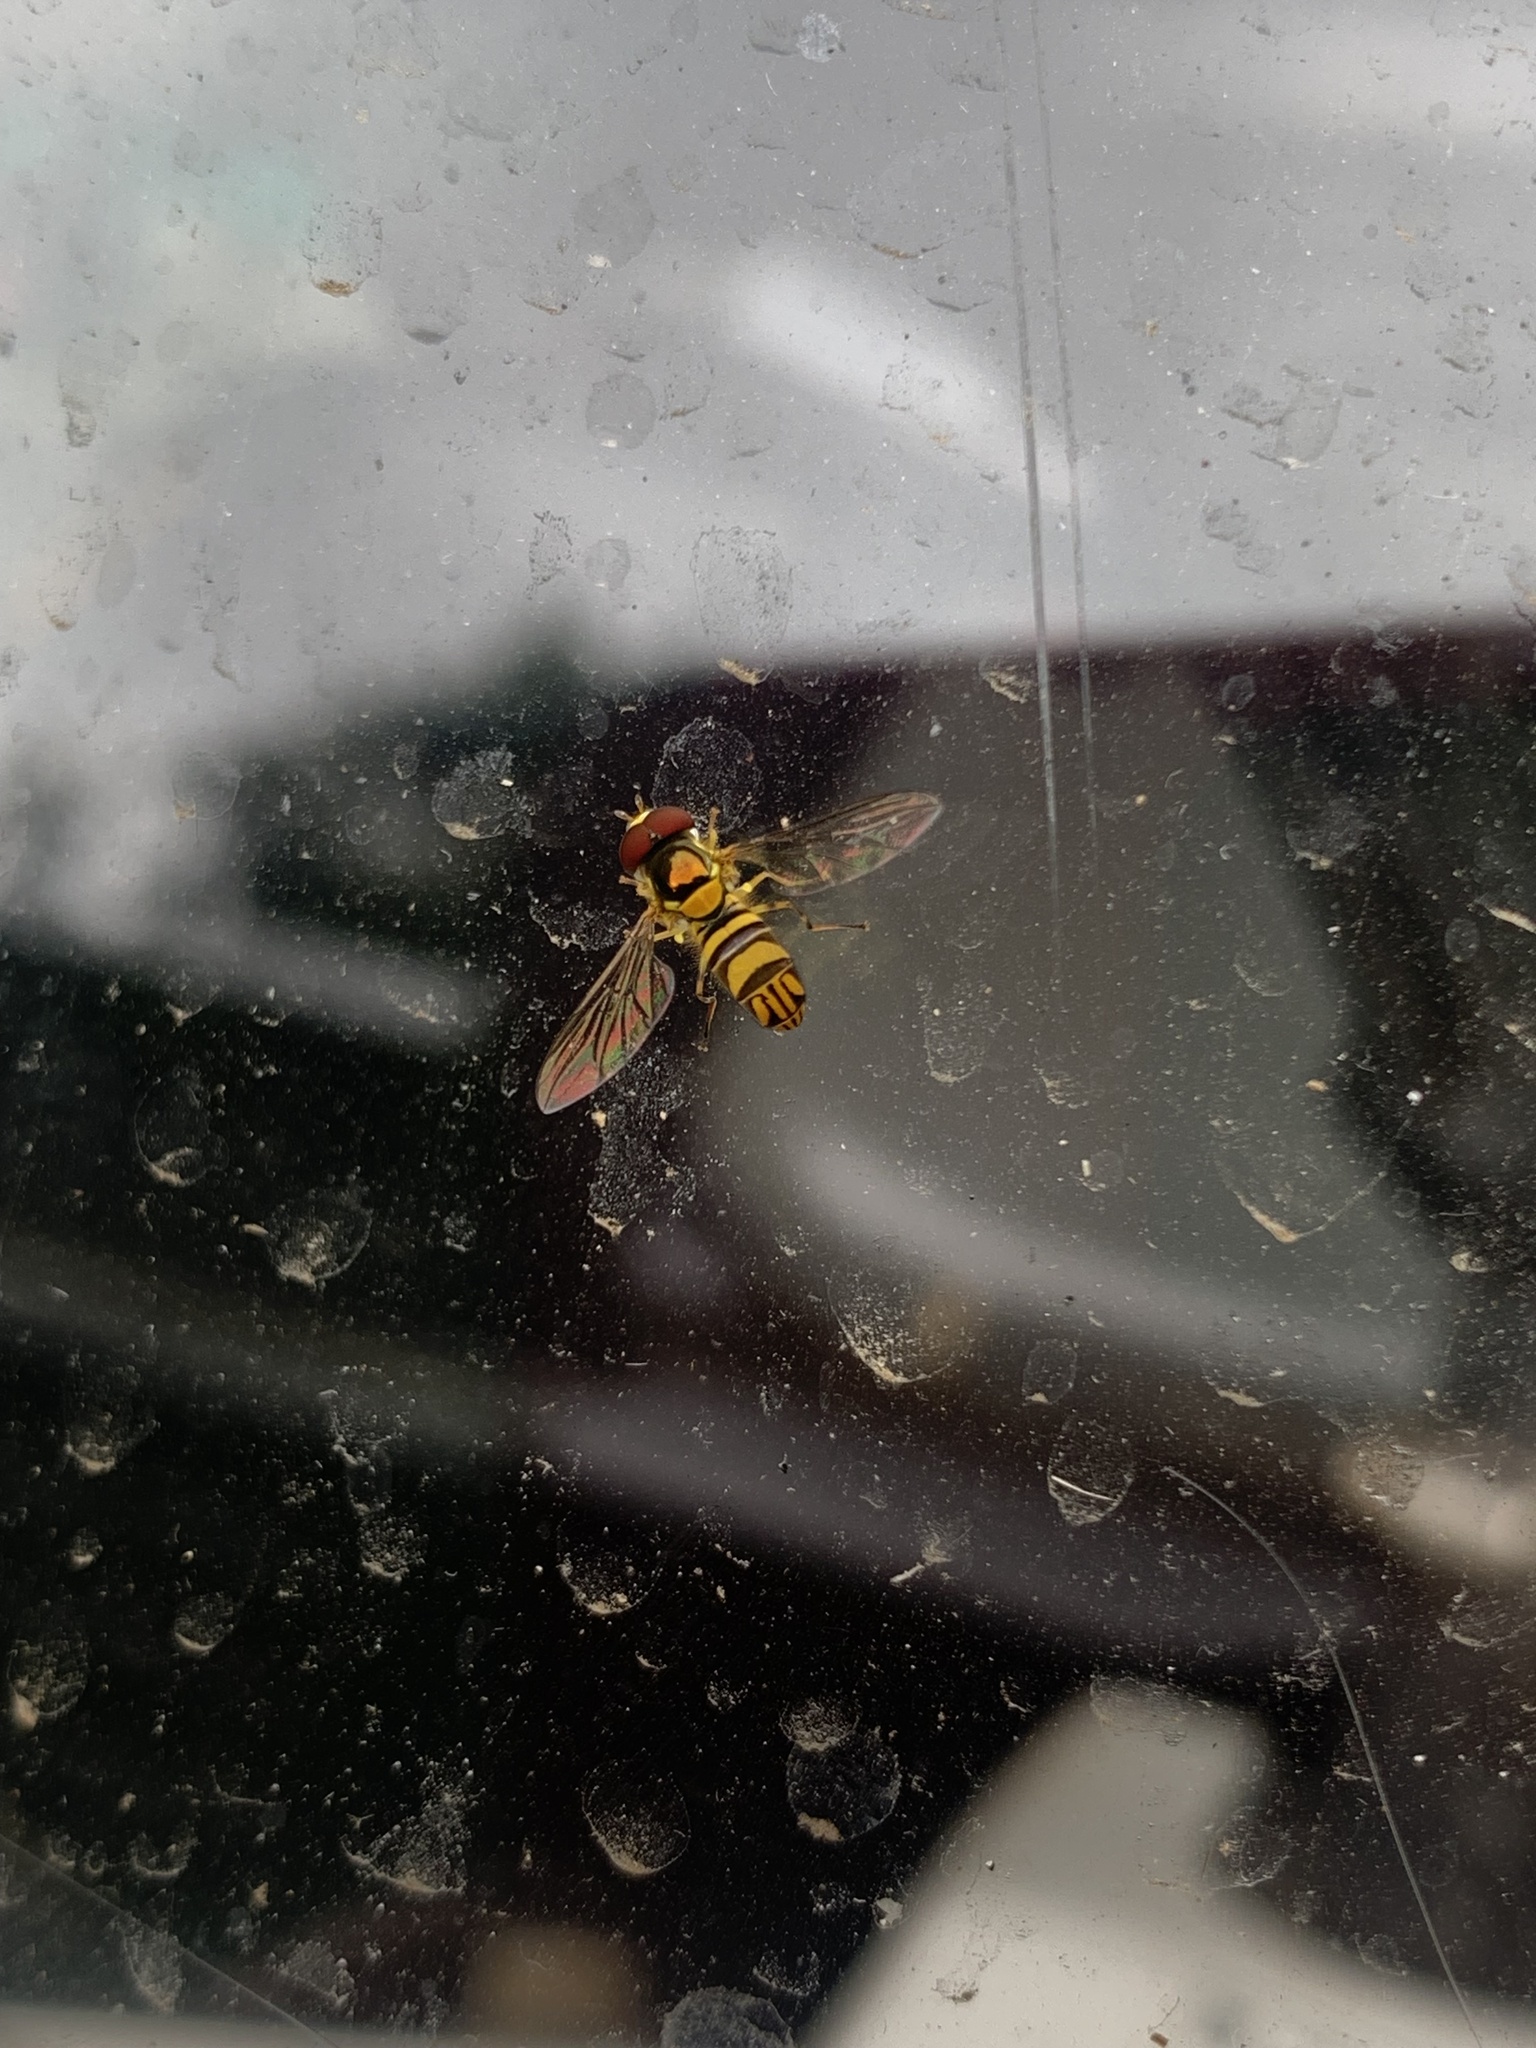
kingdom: Animalia
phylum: Arthropoda
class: Insecta
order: Diptera
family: Syrphidae
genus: Allograpta
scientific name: Allograpta obliqua
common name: Common oblique syrphid
